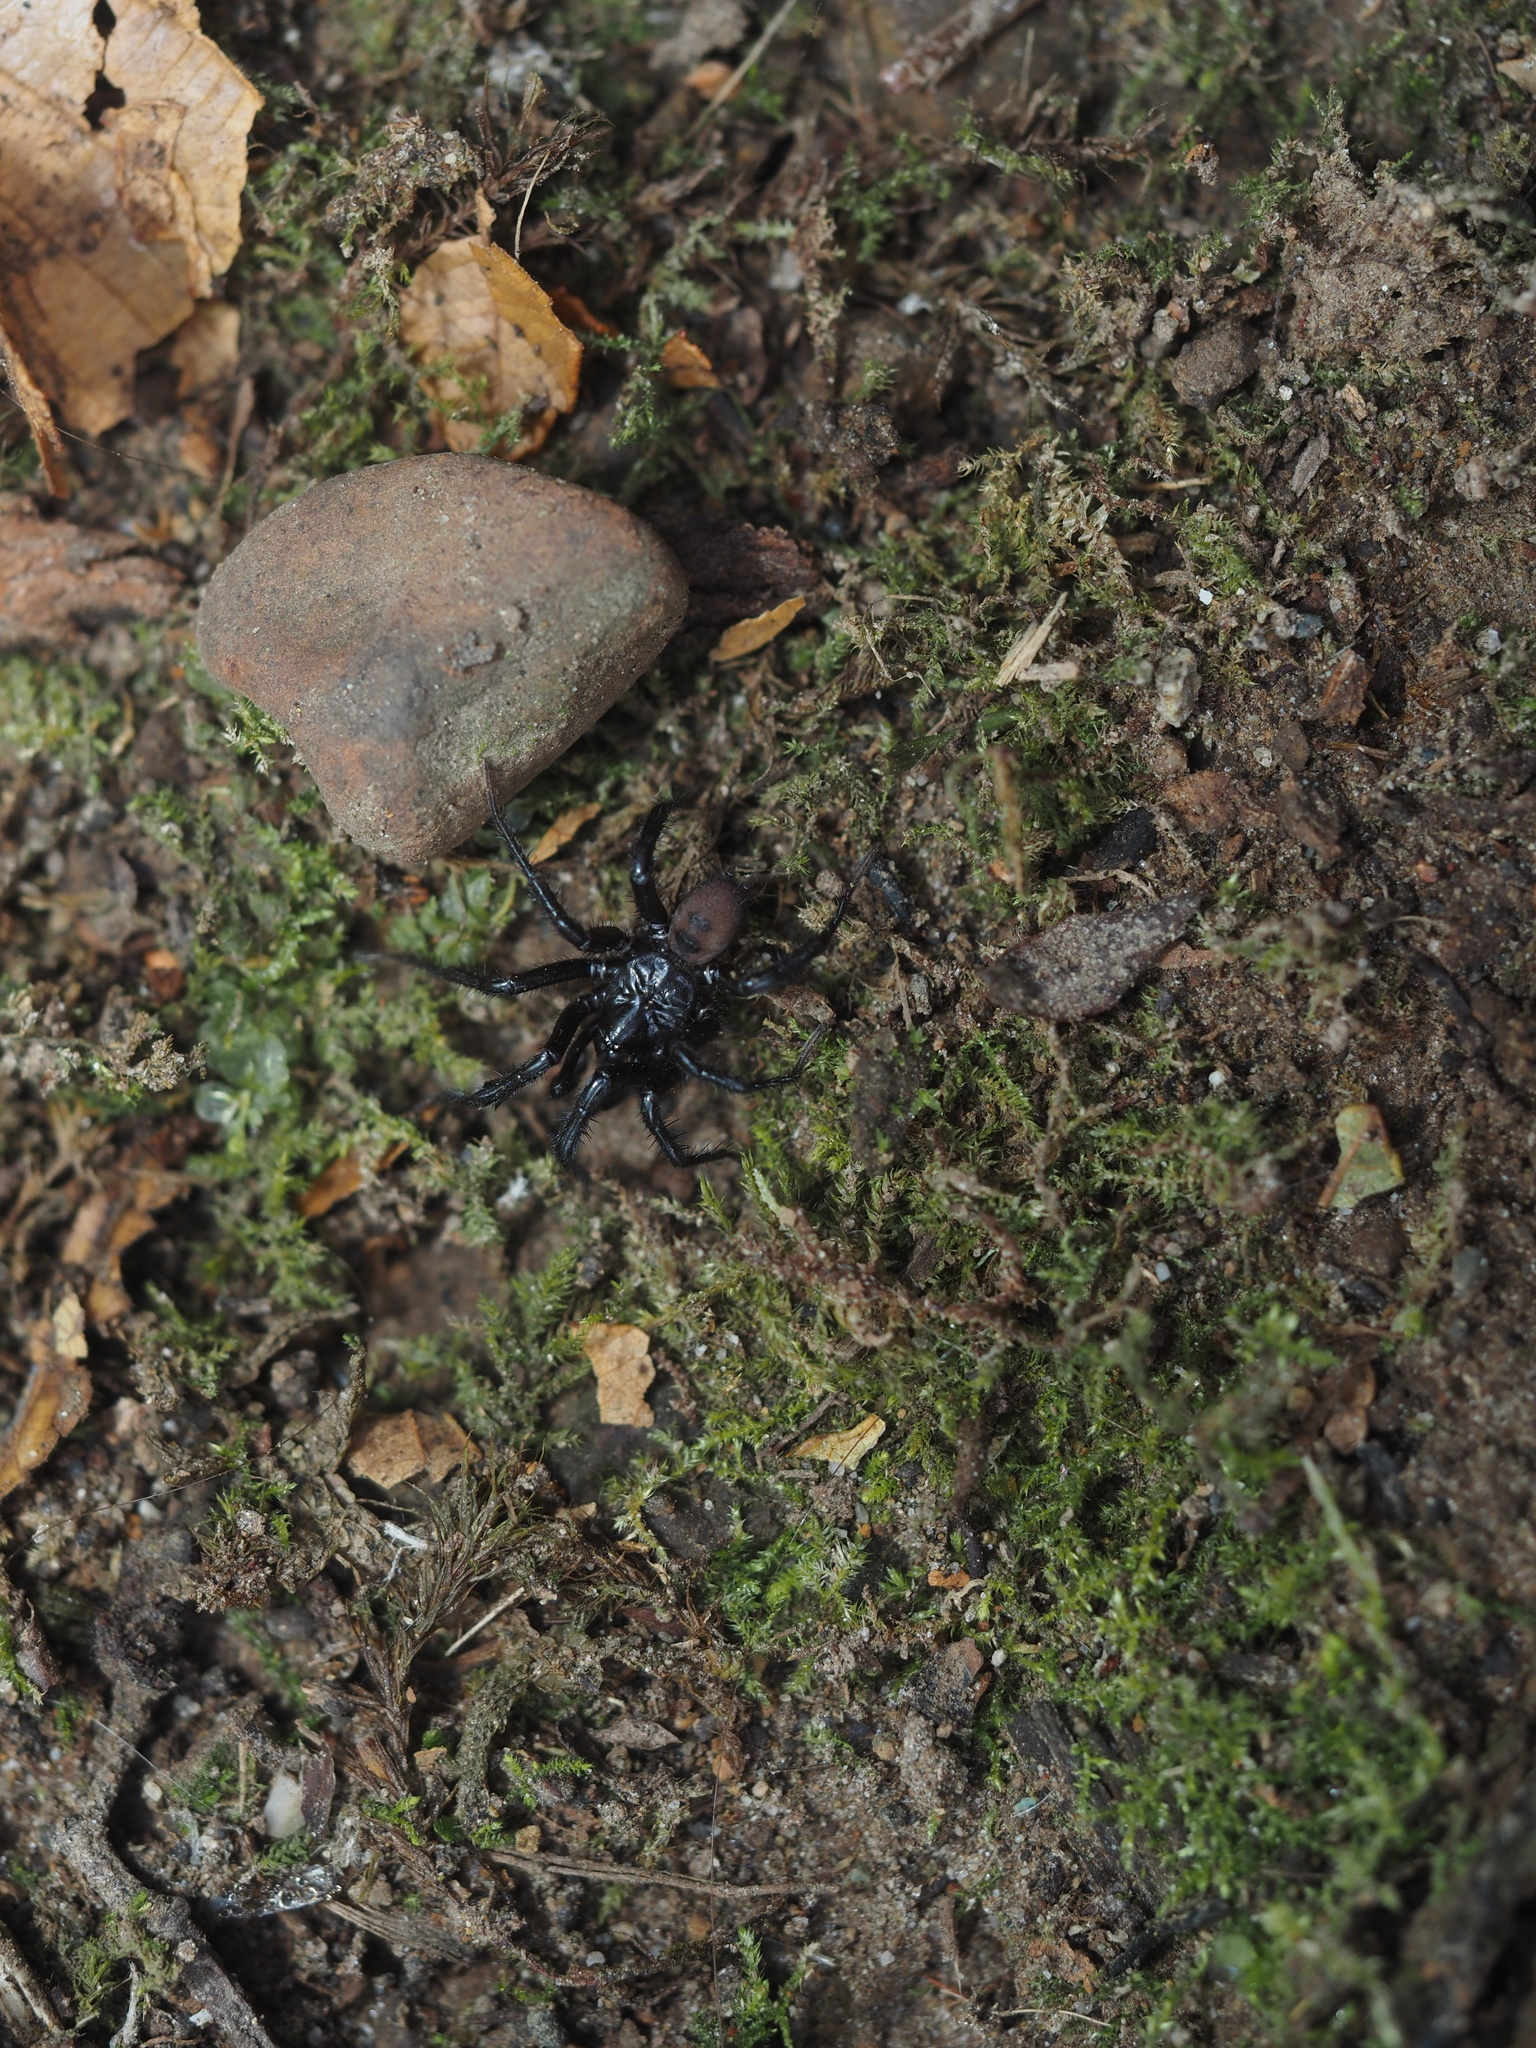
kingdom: Animalia
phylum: Arthropoda
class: Arachnida
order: Araneae
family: Antrodiaetidae
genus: Antrodiaetus
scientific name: Antrodiaetus pacificus
